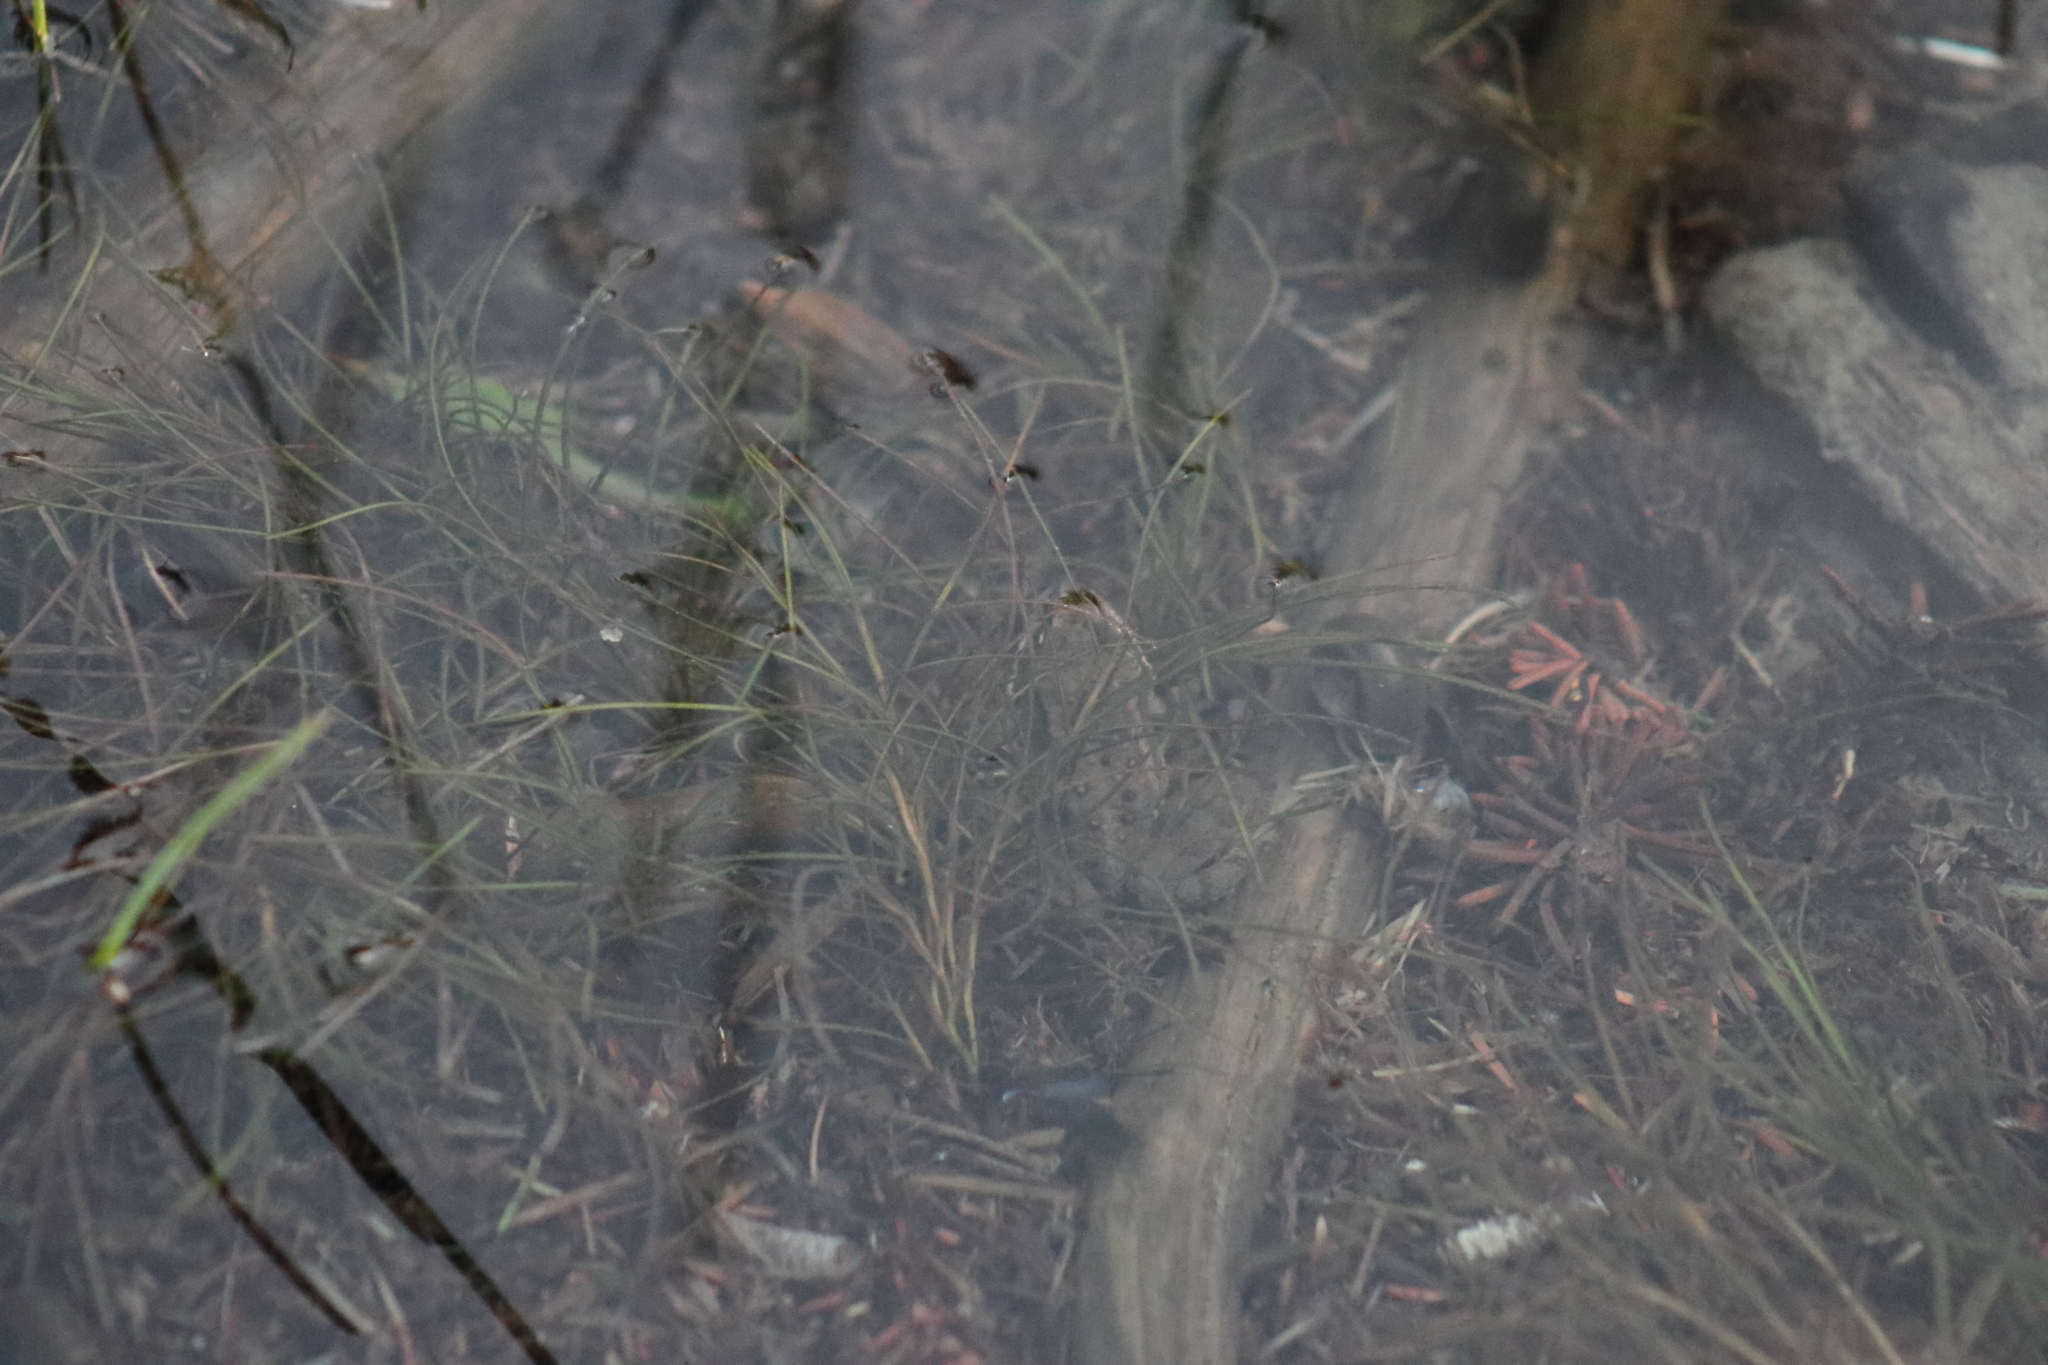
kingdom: Animalia
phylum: Chordata
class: Amphibia
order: Anura
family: Ranidae
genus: Rana
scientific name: Rana luteiventris
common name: Columbia spotted frog
